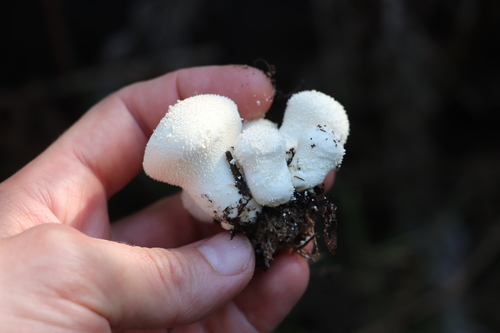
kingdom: Fungi
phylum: Basidiomycota
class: Agaricomycetes
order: Agaricales
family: Lycoperdaceae
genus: Lycoperdon
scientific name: Lycoperdon
